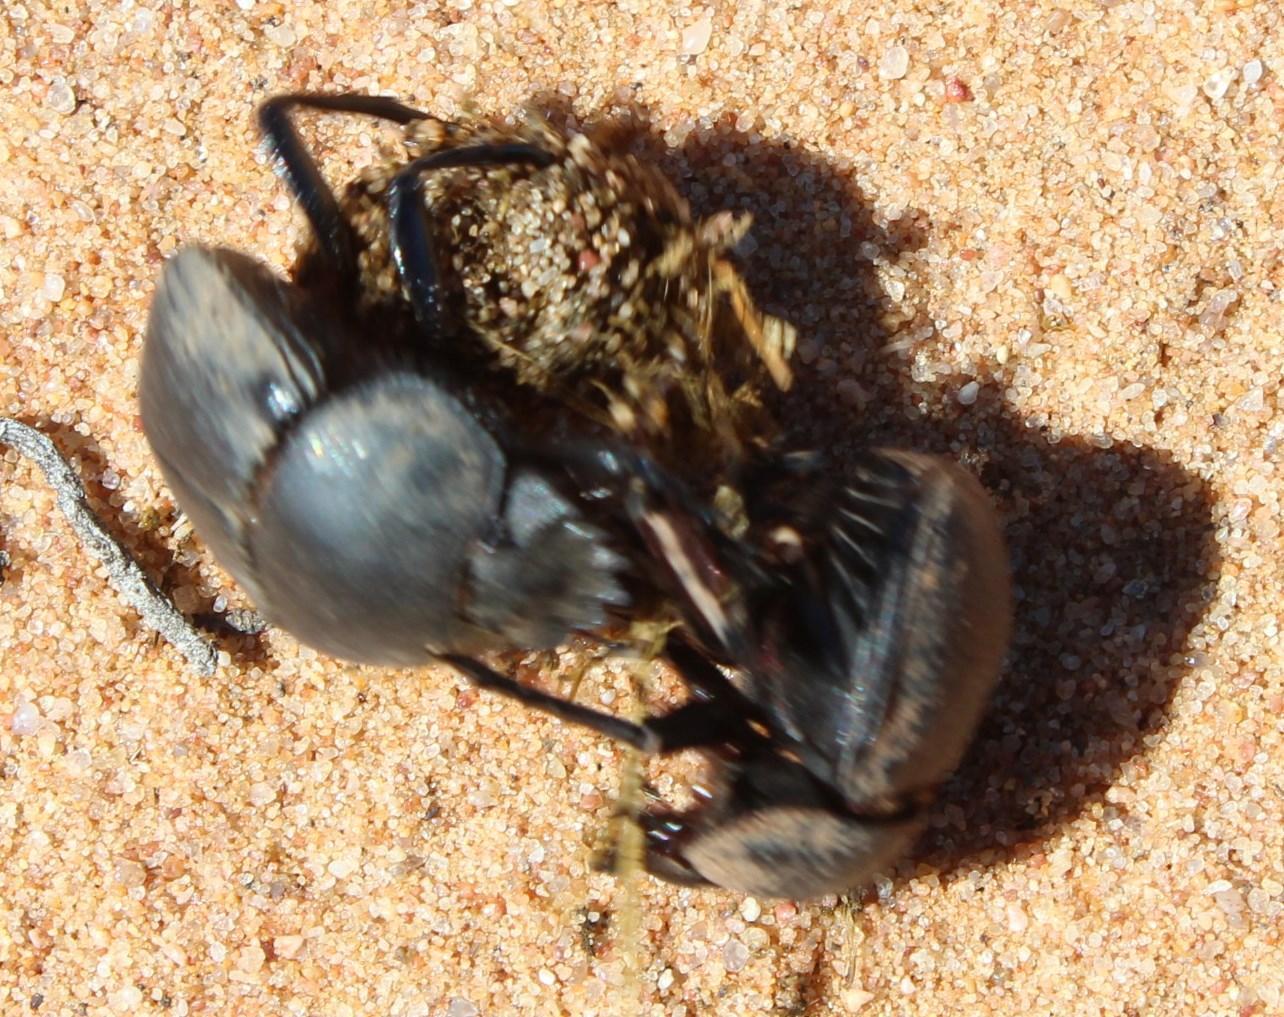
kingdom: Animalia
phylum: Arthropoda
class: Insecta
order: Coleoptera
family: Scarabaeidae
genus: Scarabaeus
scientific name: Scarabaeus rugosus
